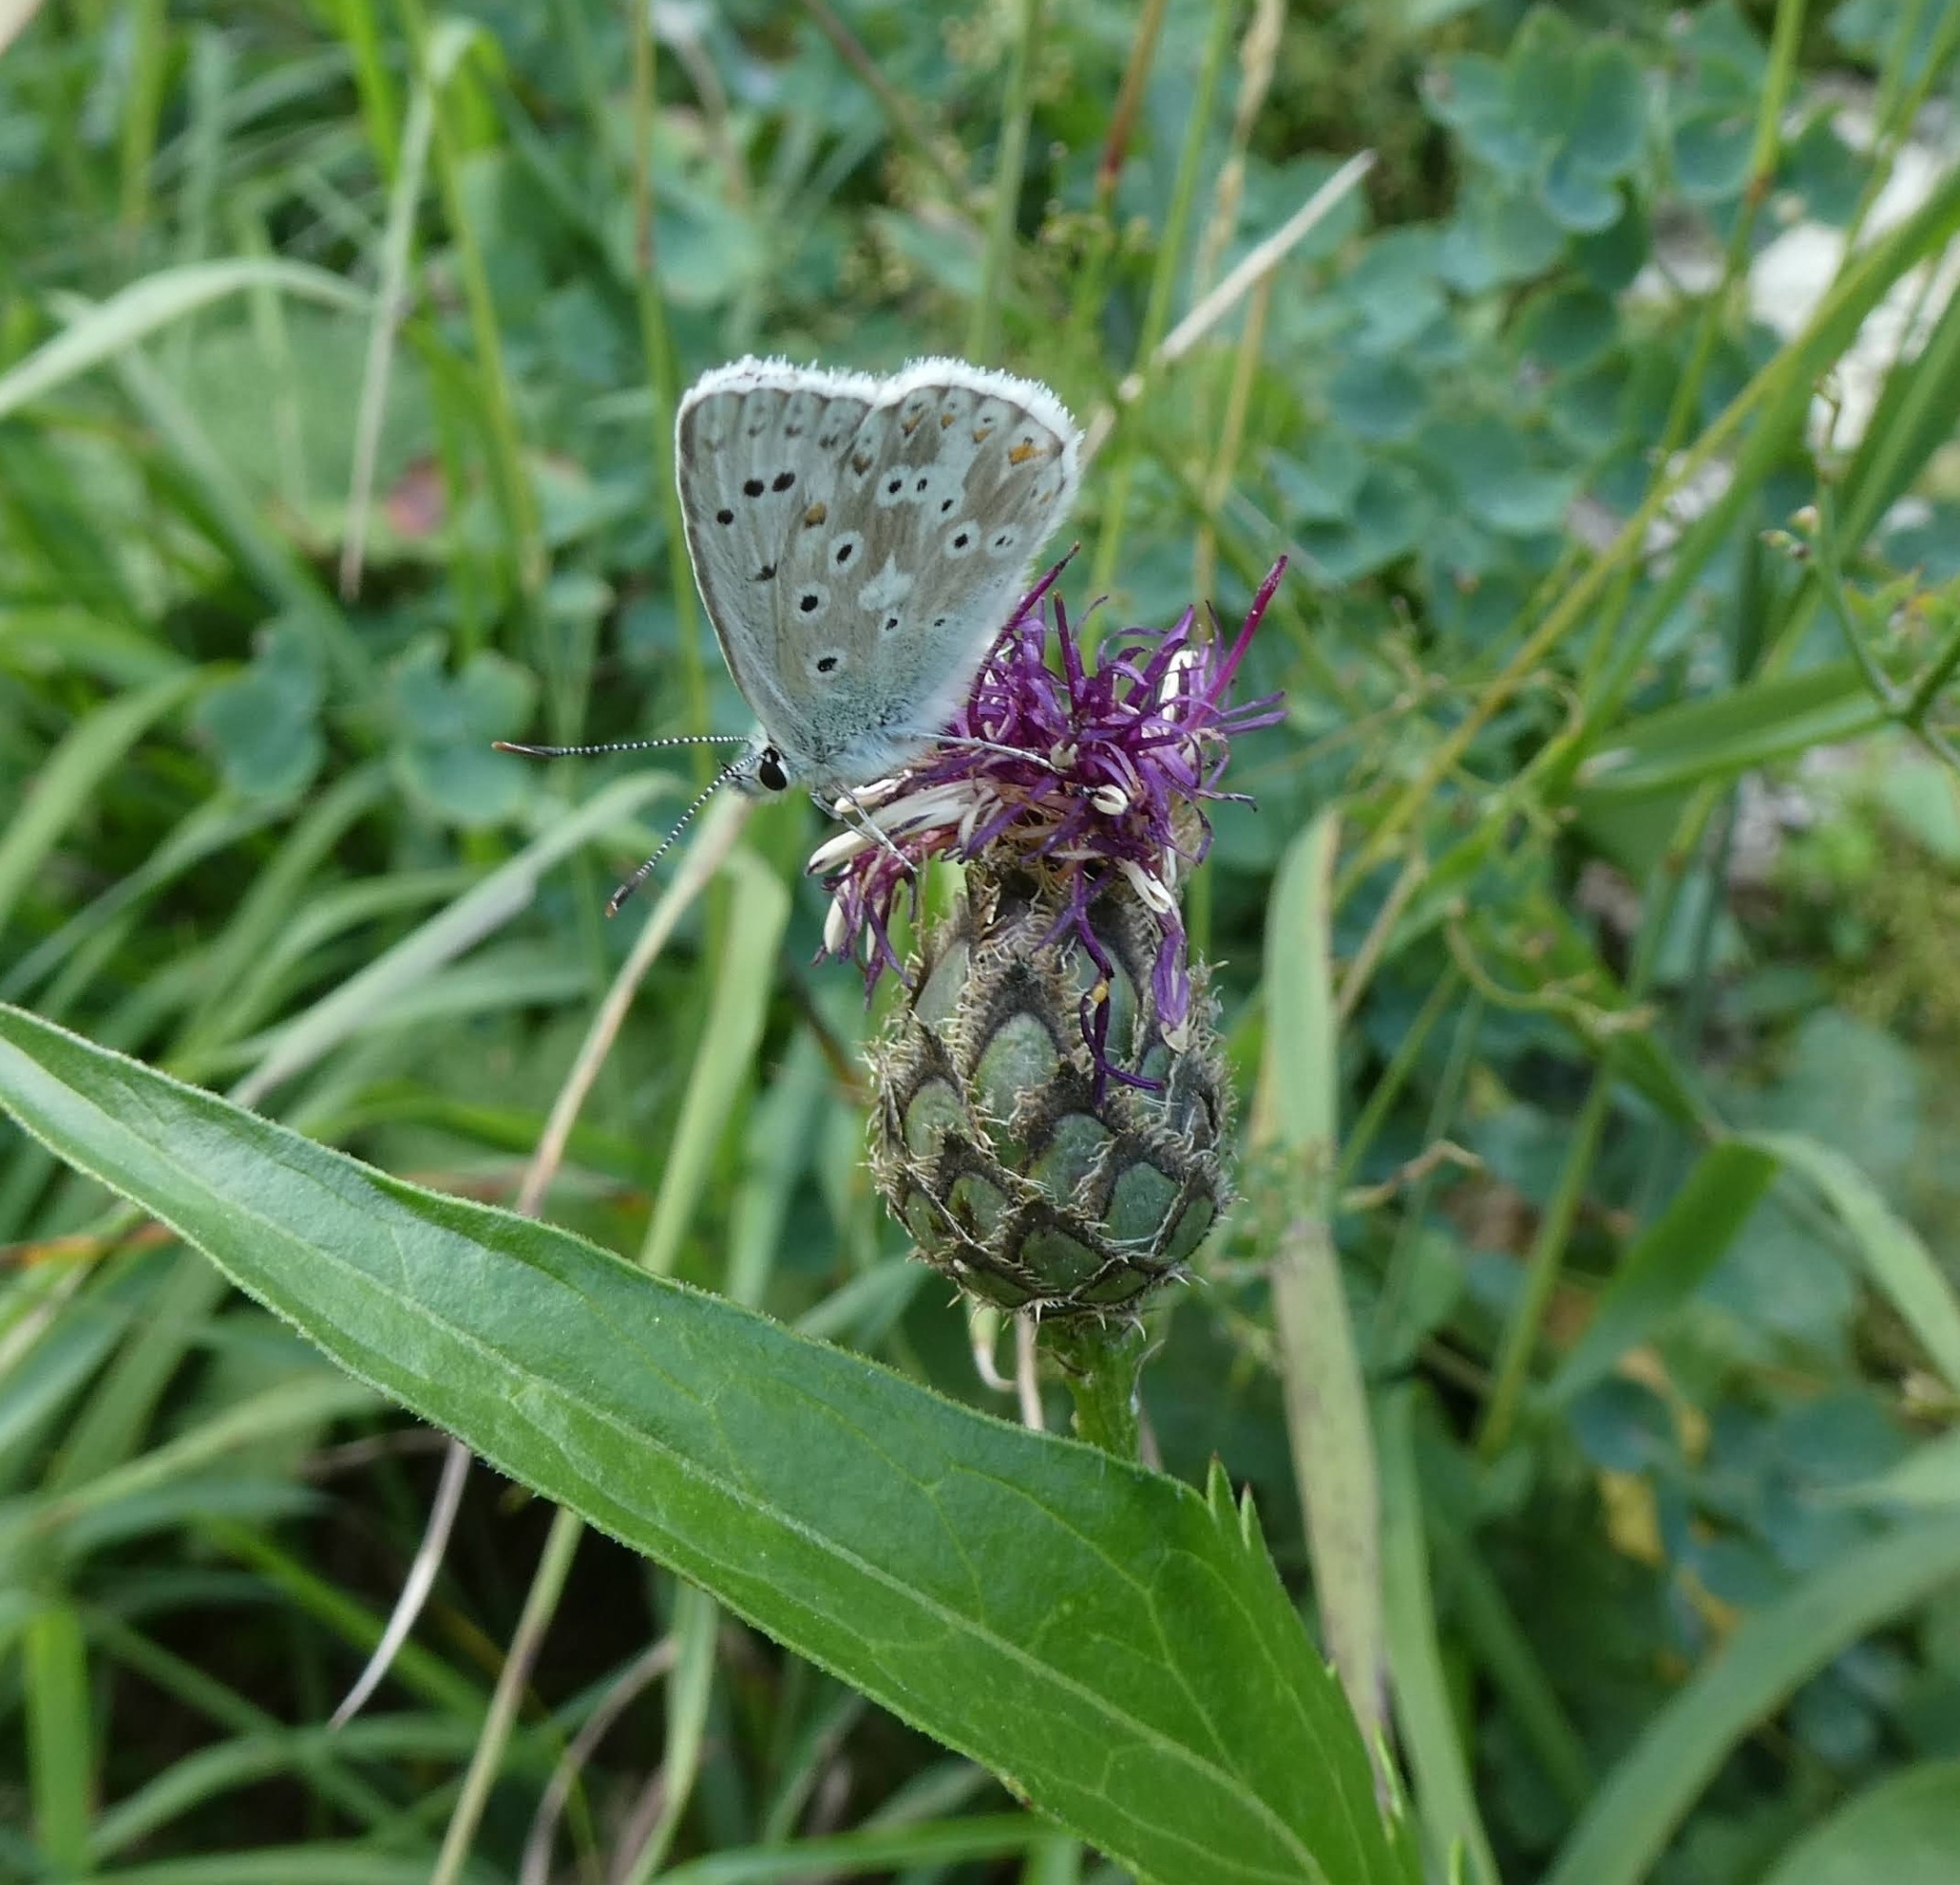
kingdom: Animalia
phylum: Arthropoda
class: Insecta
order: Lepidoptera
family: Lycaenidae
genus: Lysandra
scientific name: Lysandra coridon
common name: Chalkhill blue
